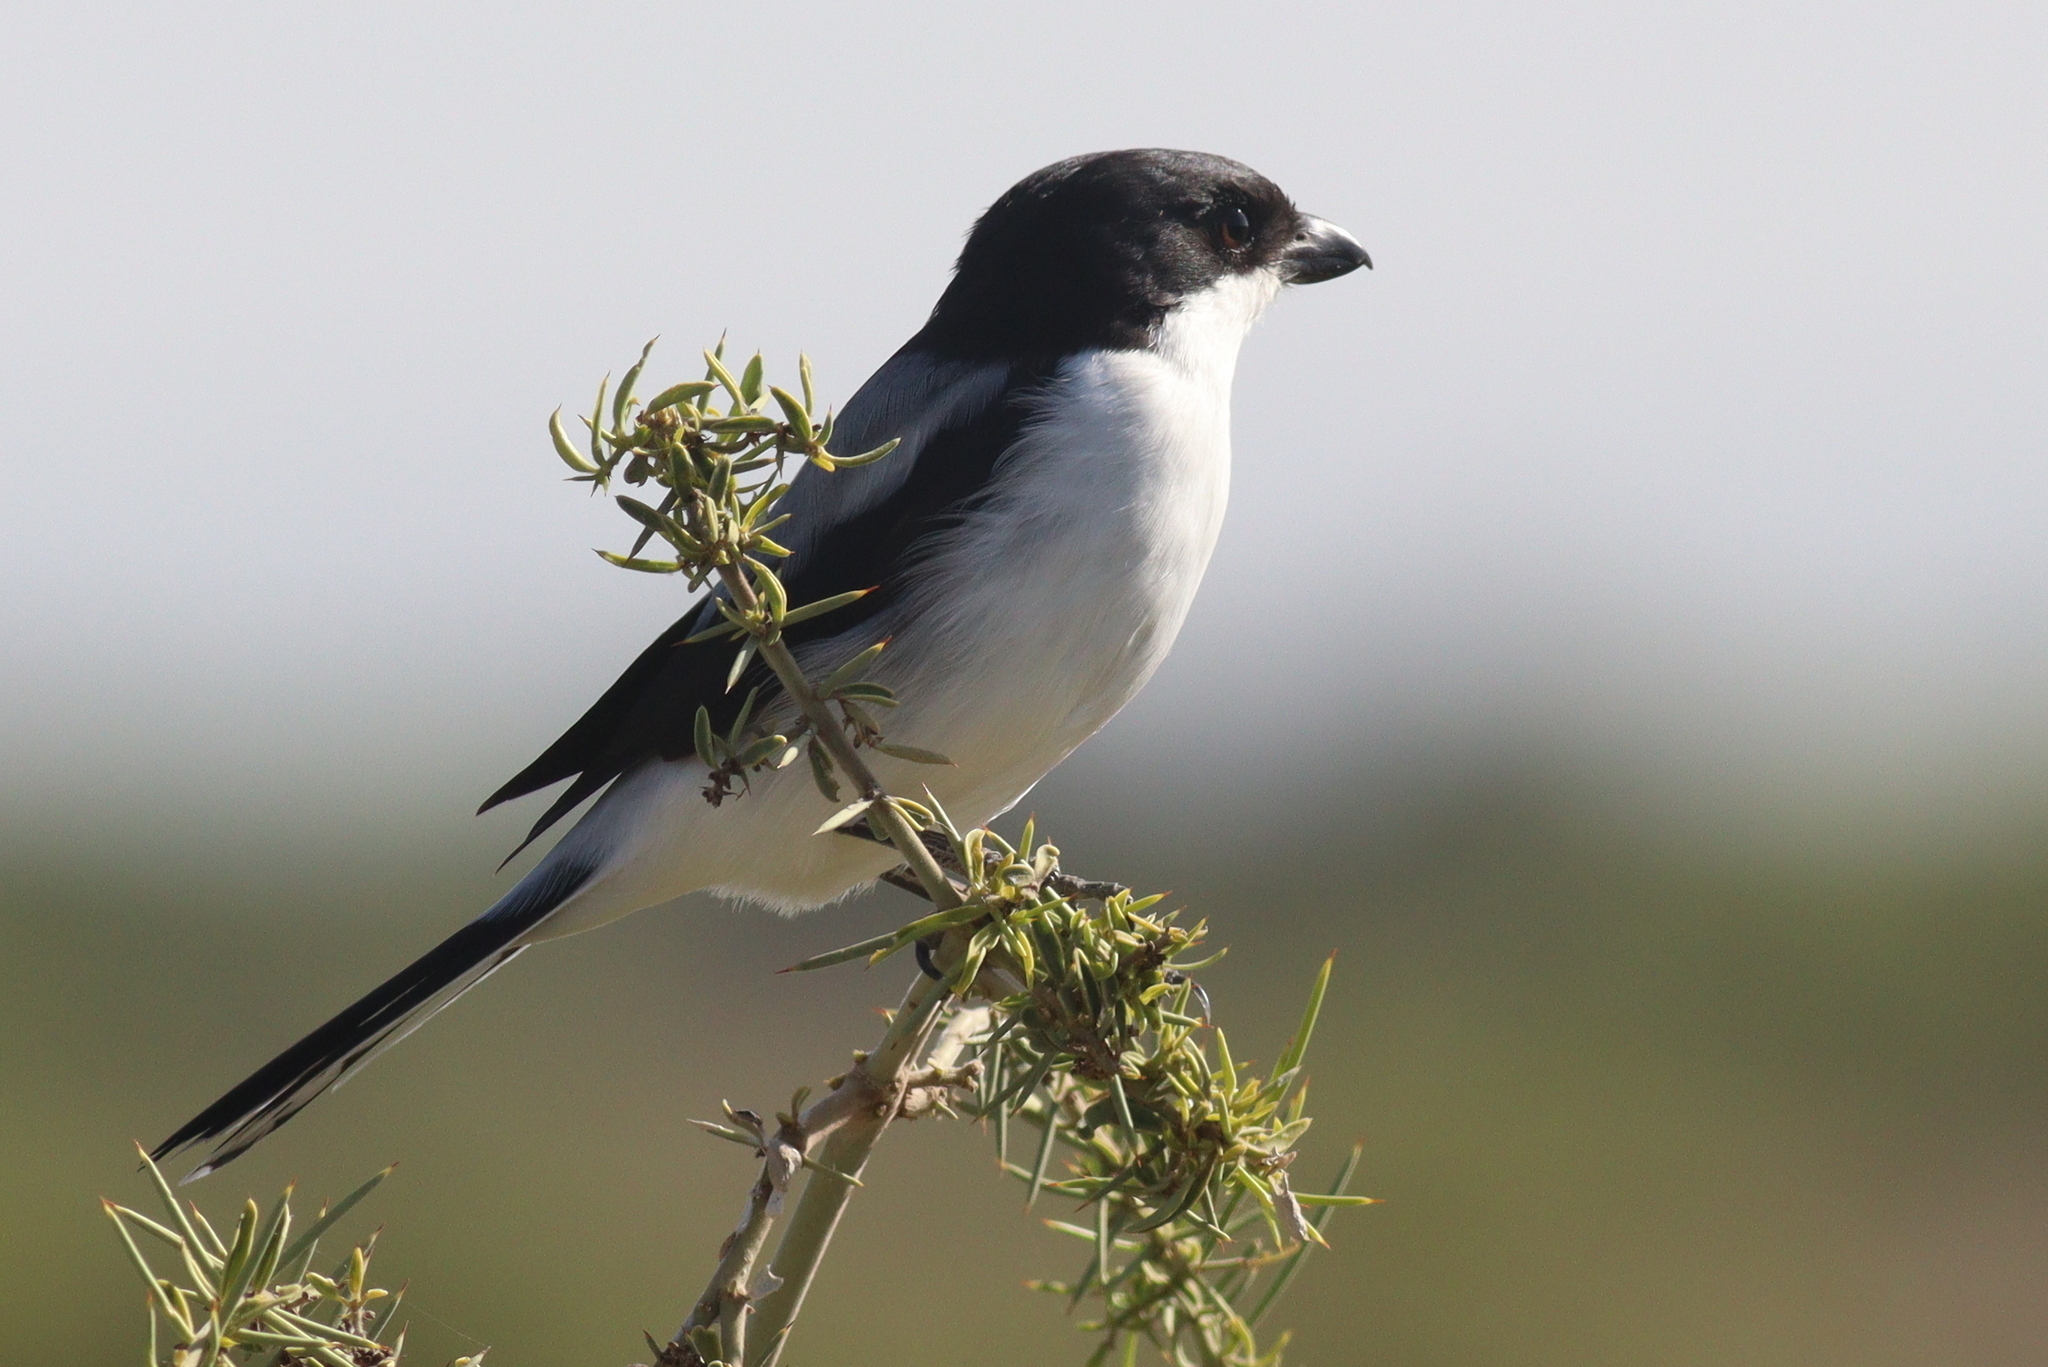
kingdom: Animalia
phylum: Chordata
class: Aves
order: Passeriformes
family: Laniidae
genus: Lanius
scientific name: Lanius dorsalis
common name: Taita fiscal
